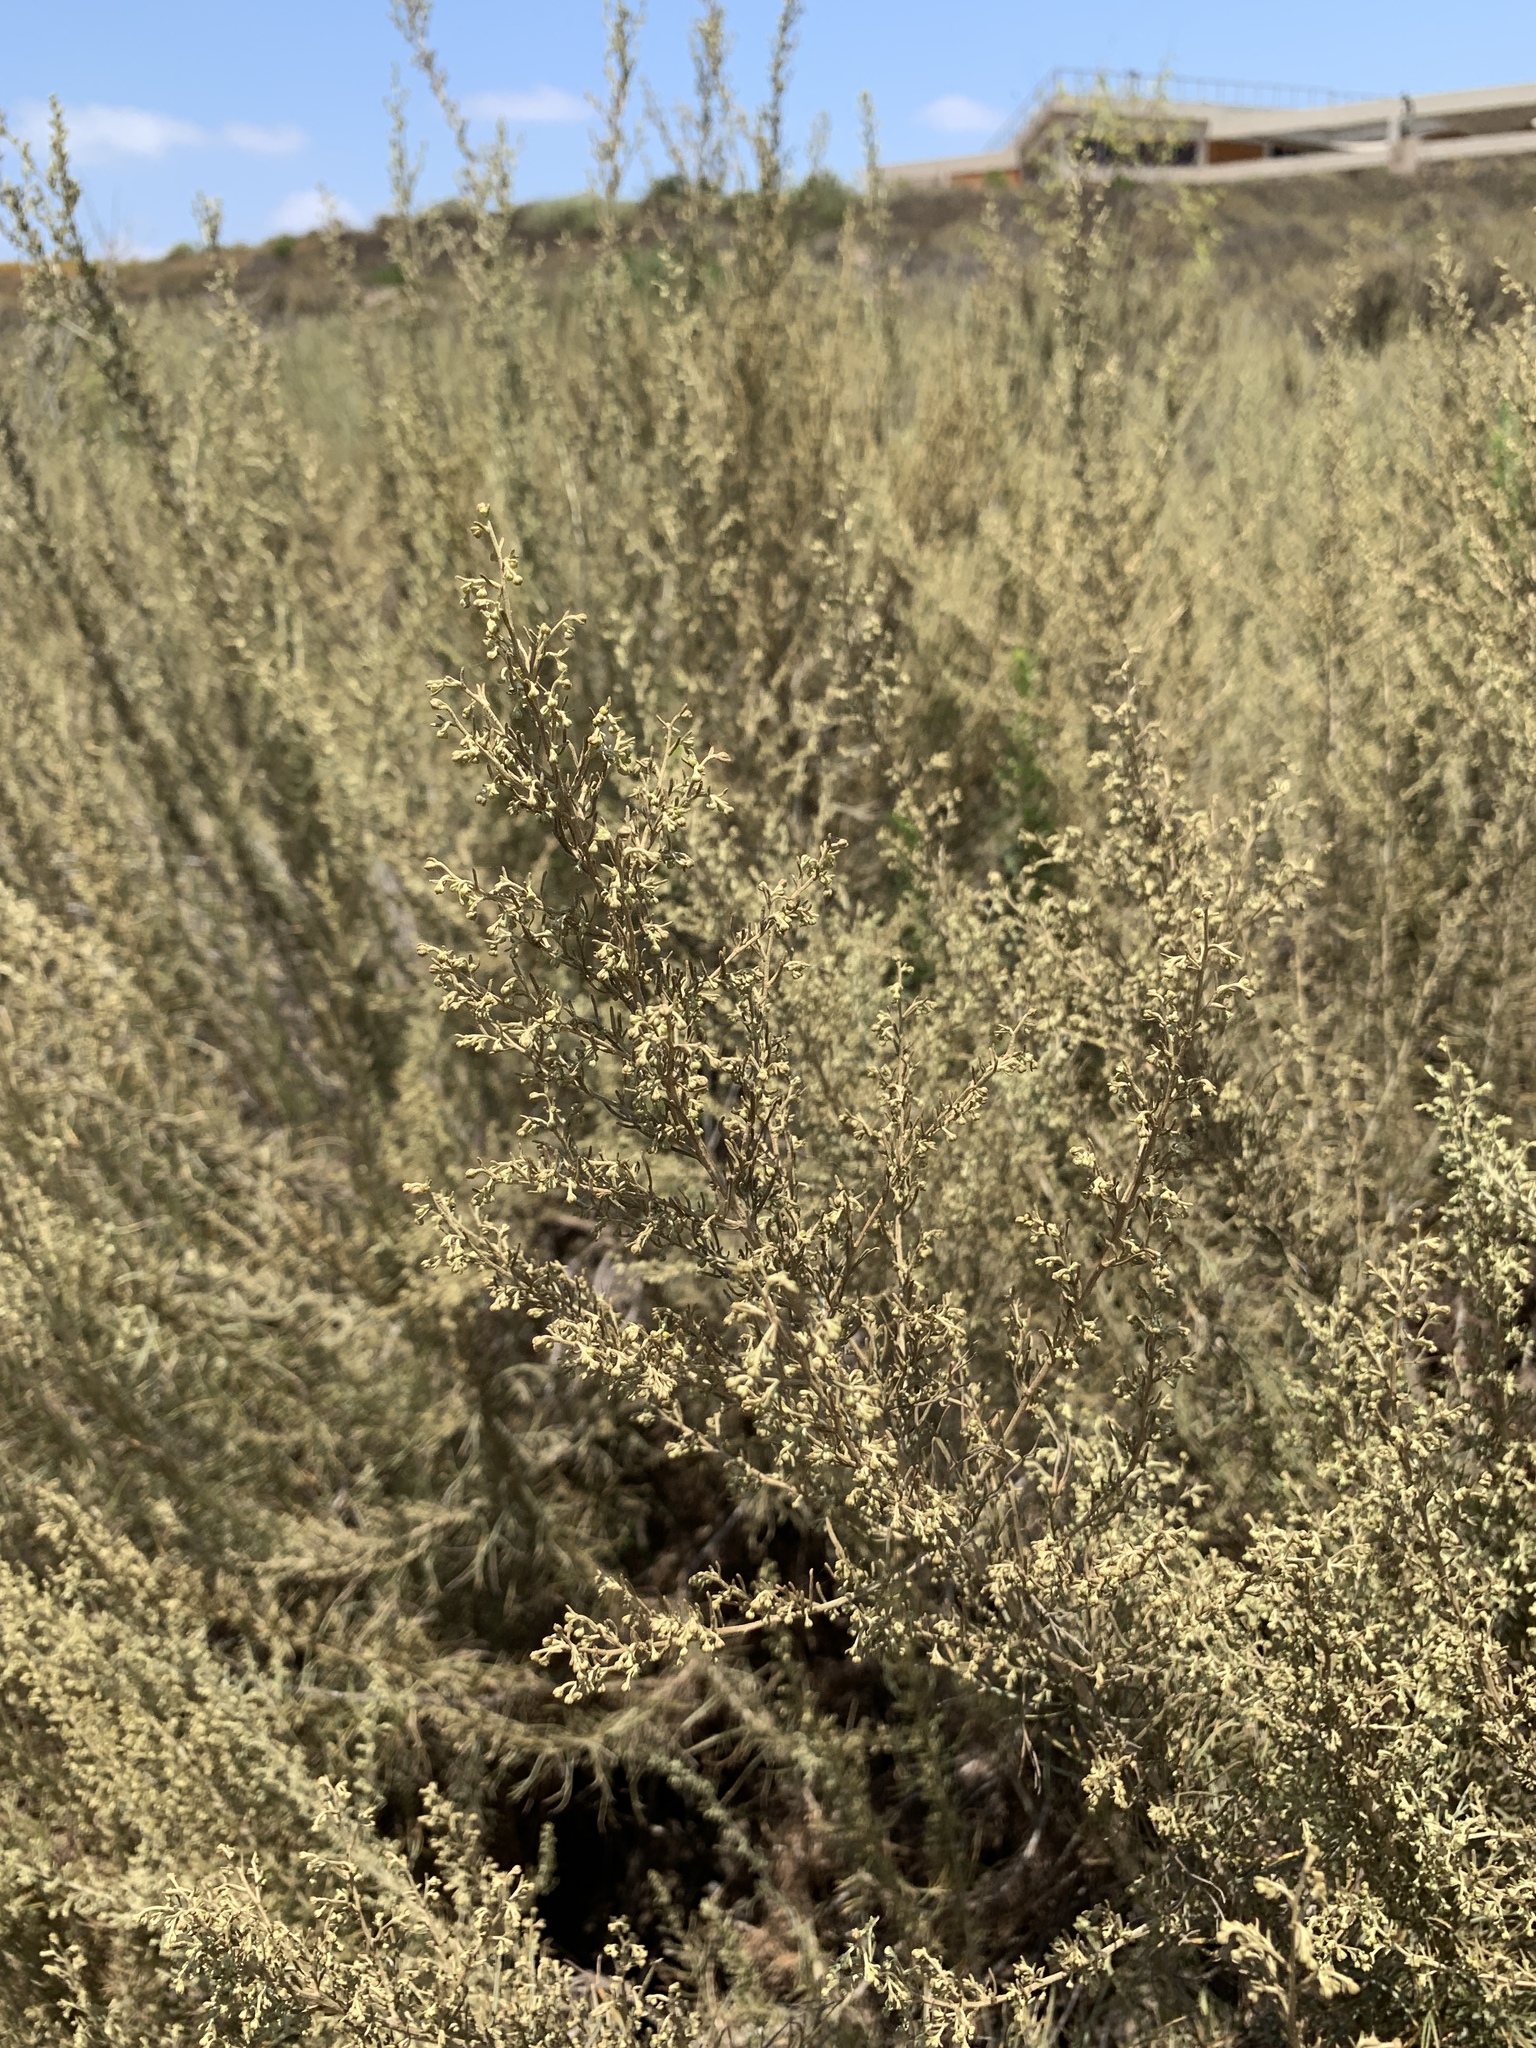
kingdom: Plantae
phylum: Tracheophyta
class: Magnoliopsida
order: Asterales
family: Asteraceae
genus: Artemisia
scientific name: Artemisia californica
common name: California sagebrush
